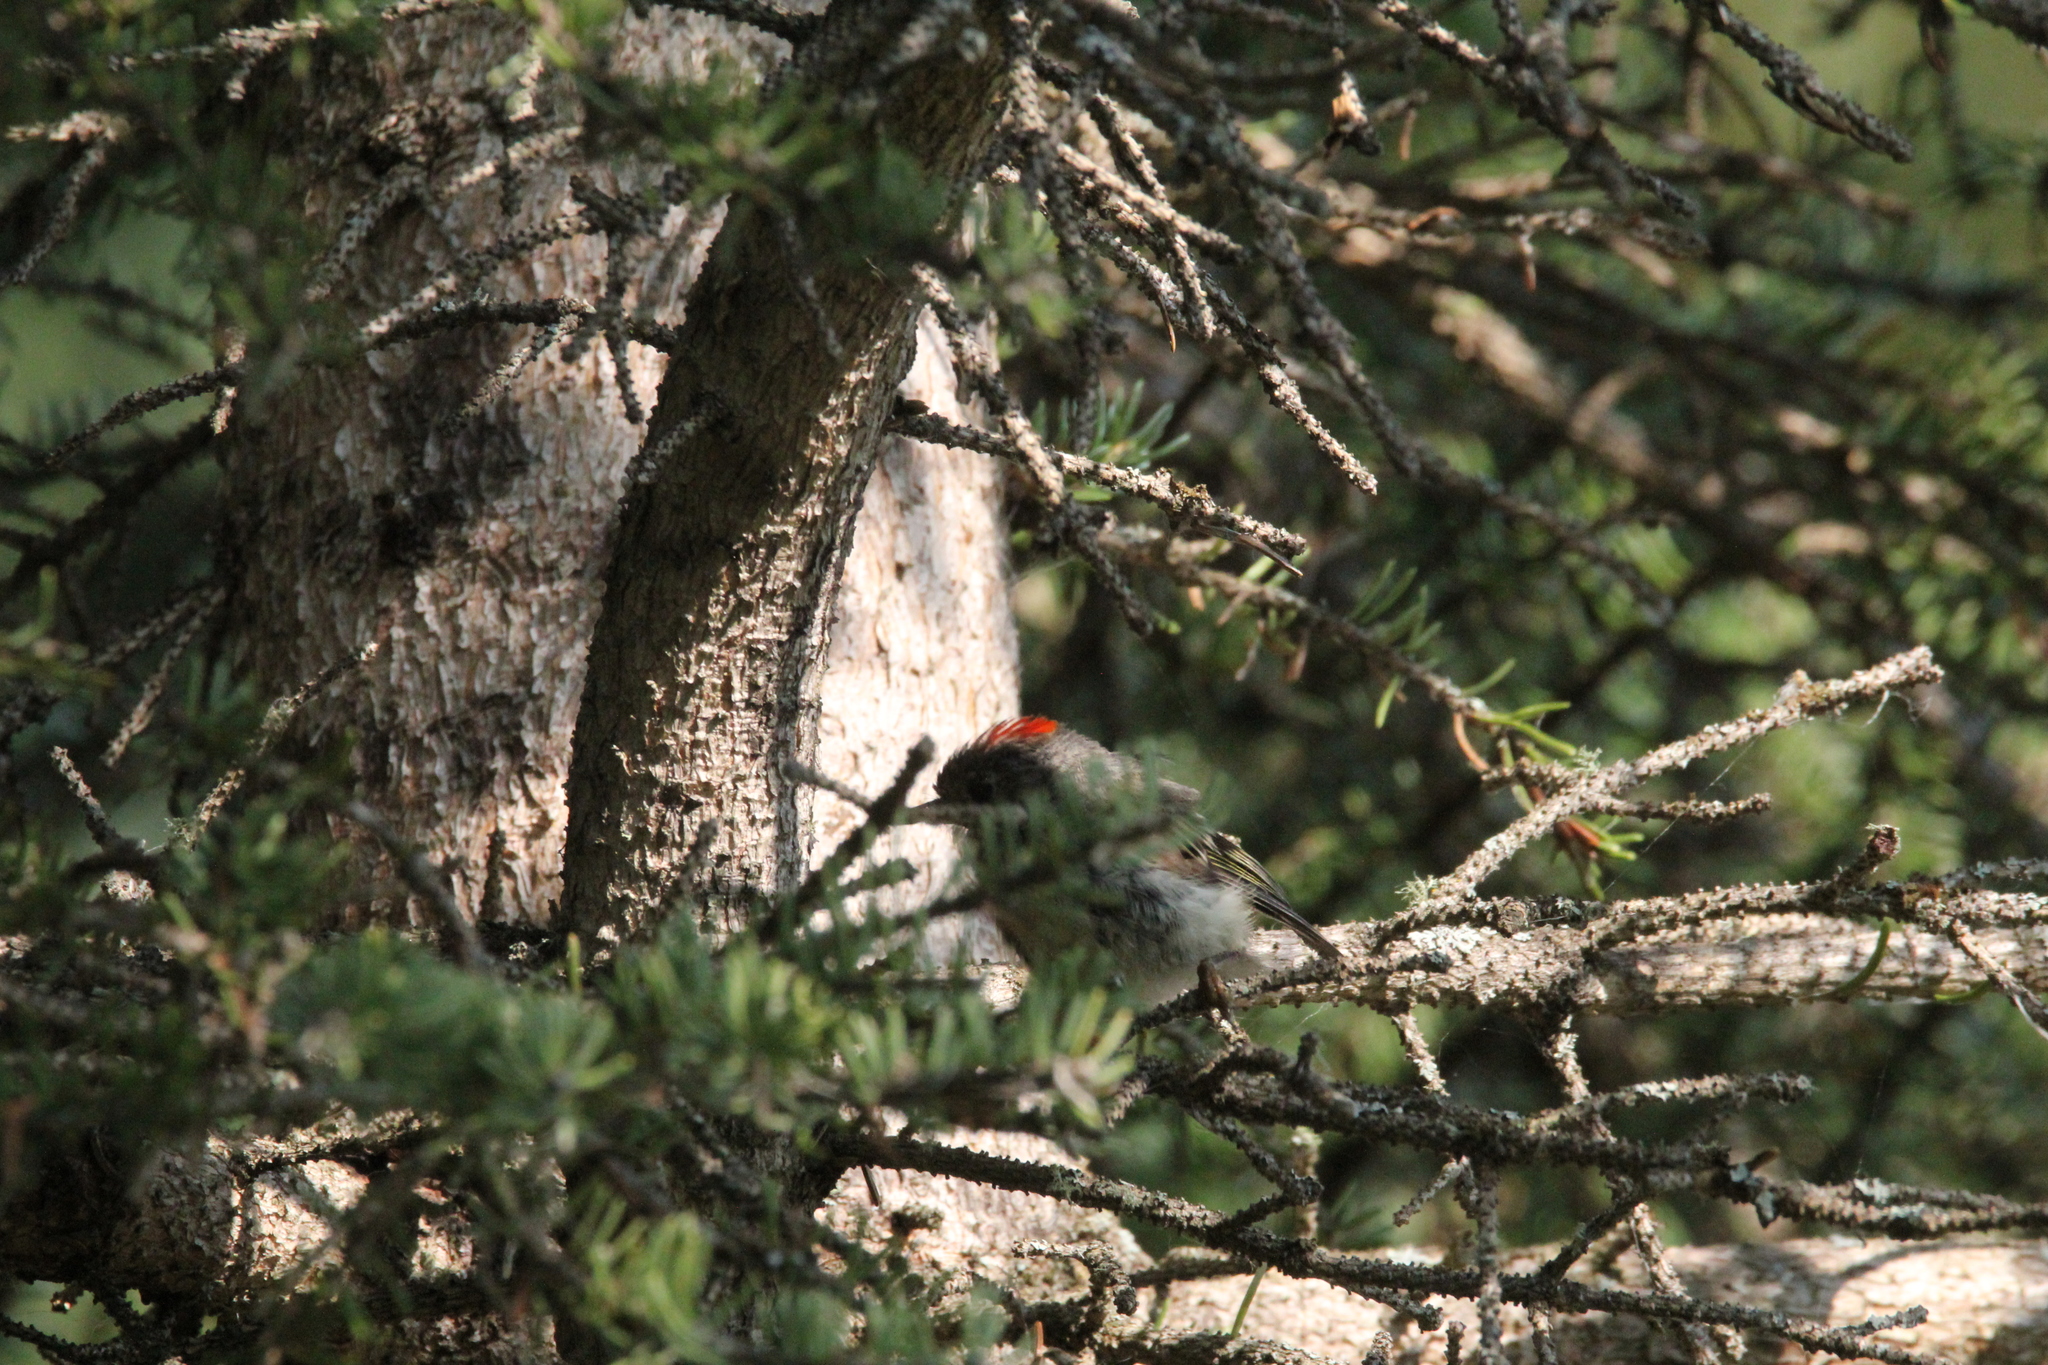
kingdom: Animalia
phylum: Chordata
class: Aves
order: Passeriformes
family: Regulidae
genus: Regulus
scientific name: Regulus calendula
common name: Ruby-crowned kinglet
